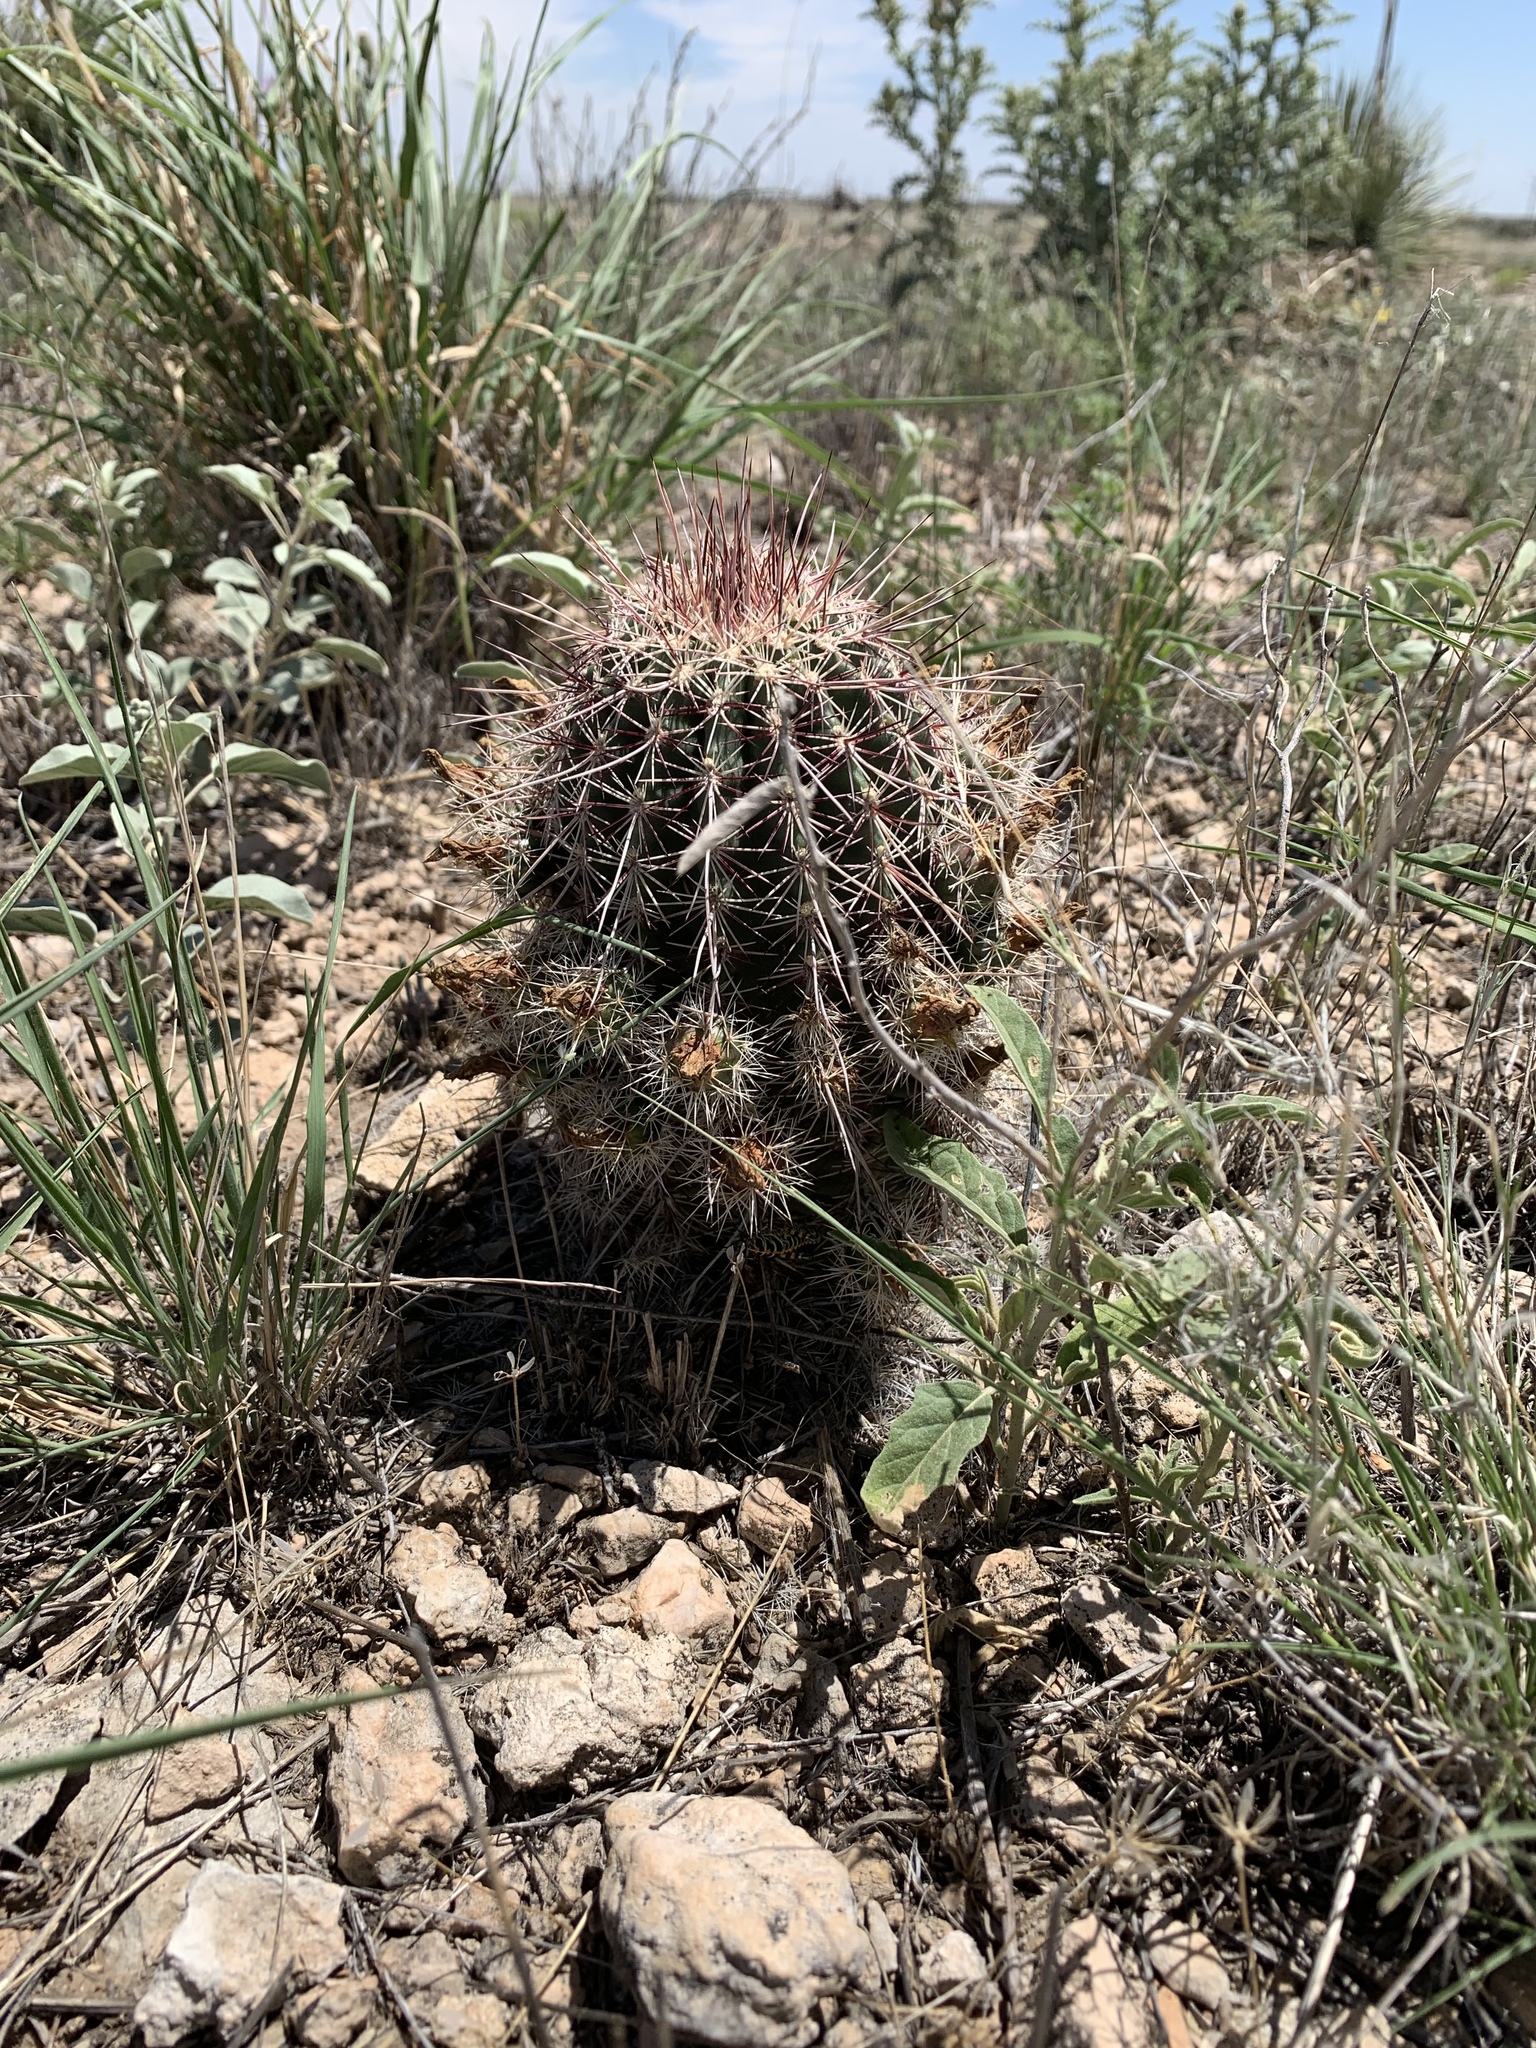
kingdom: Plantae
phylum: Tracheophyta
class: Magnoliopsida
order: Caryophyllales
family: Cactaceae
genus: Echinocereus
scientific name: Echinocereus viridiflorus
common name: Nylon hedgehog cactus
